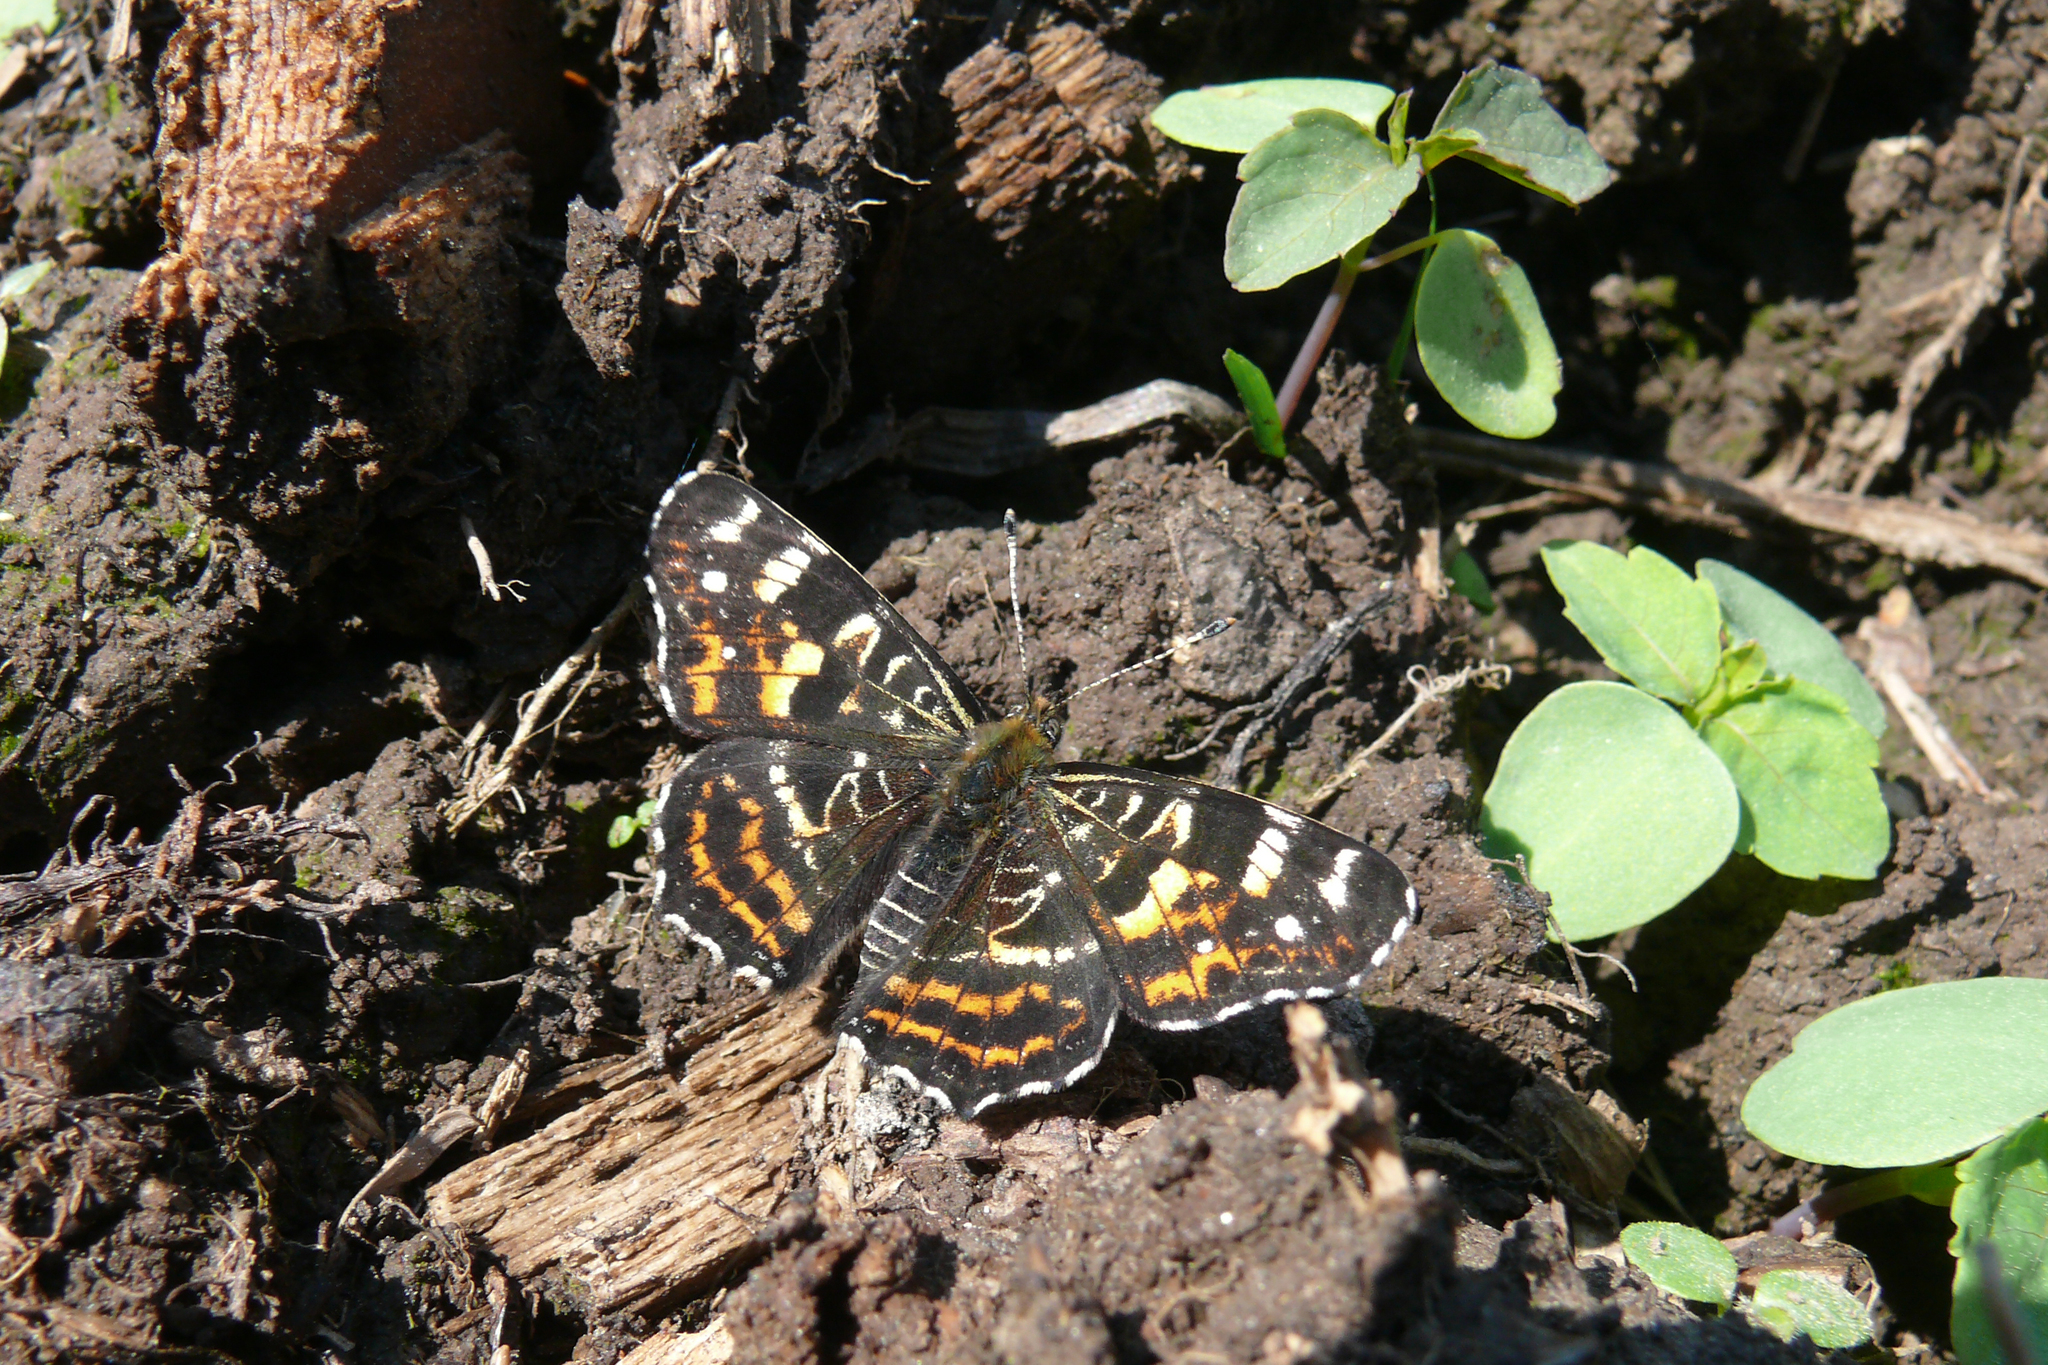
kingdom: Animalia
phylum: Arthropoda
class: Insecta
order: Lepidoptera
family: Nymphalidae
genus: Araschnia
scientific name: Araschnia levana
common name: Map butterfly
